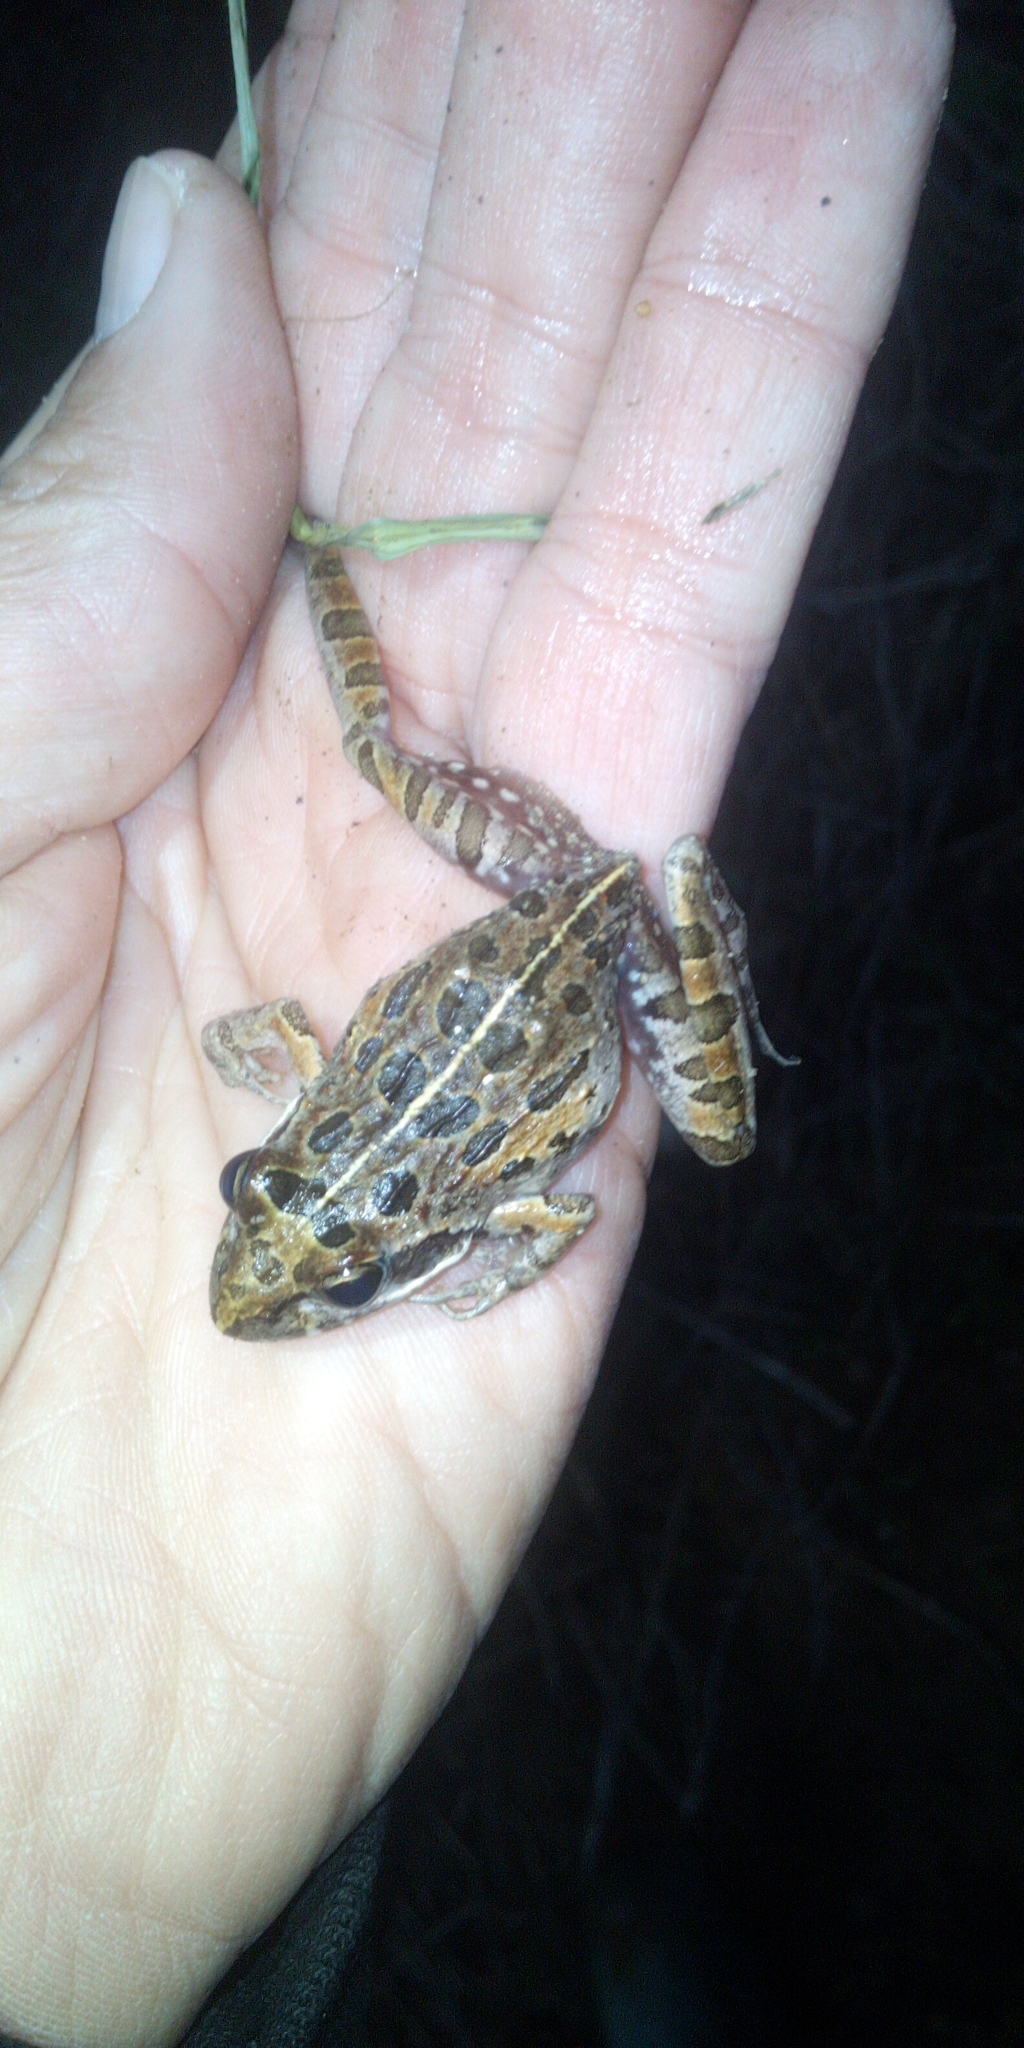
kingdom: Animalia
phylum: Chordata
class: Amphibia
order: Anura
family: Pyxicephalidae
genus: Strongylopus
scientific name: Strongylopus grayii
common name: Gray's stream frog
